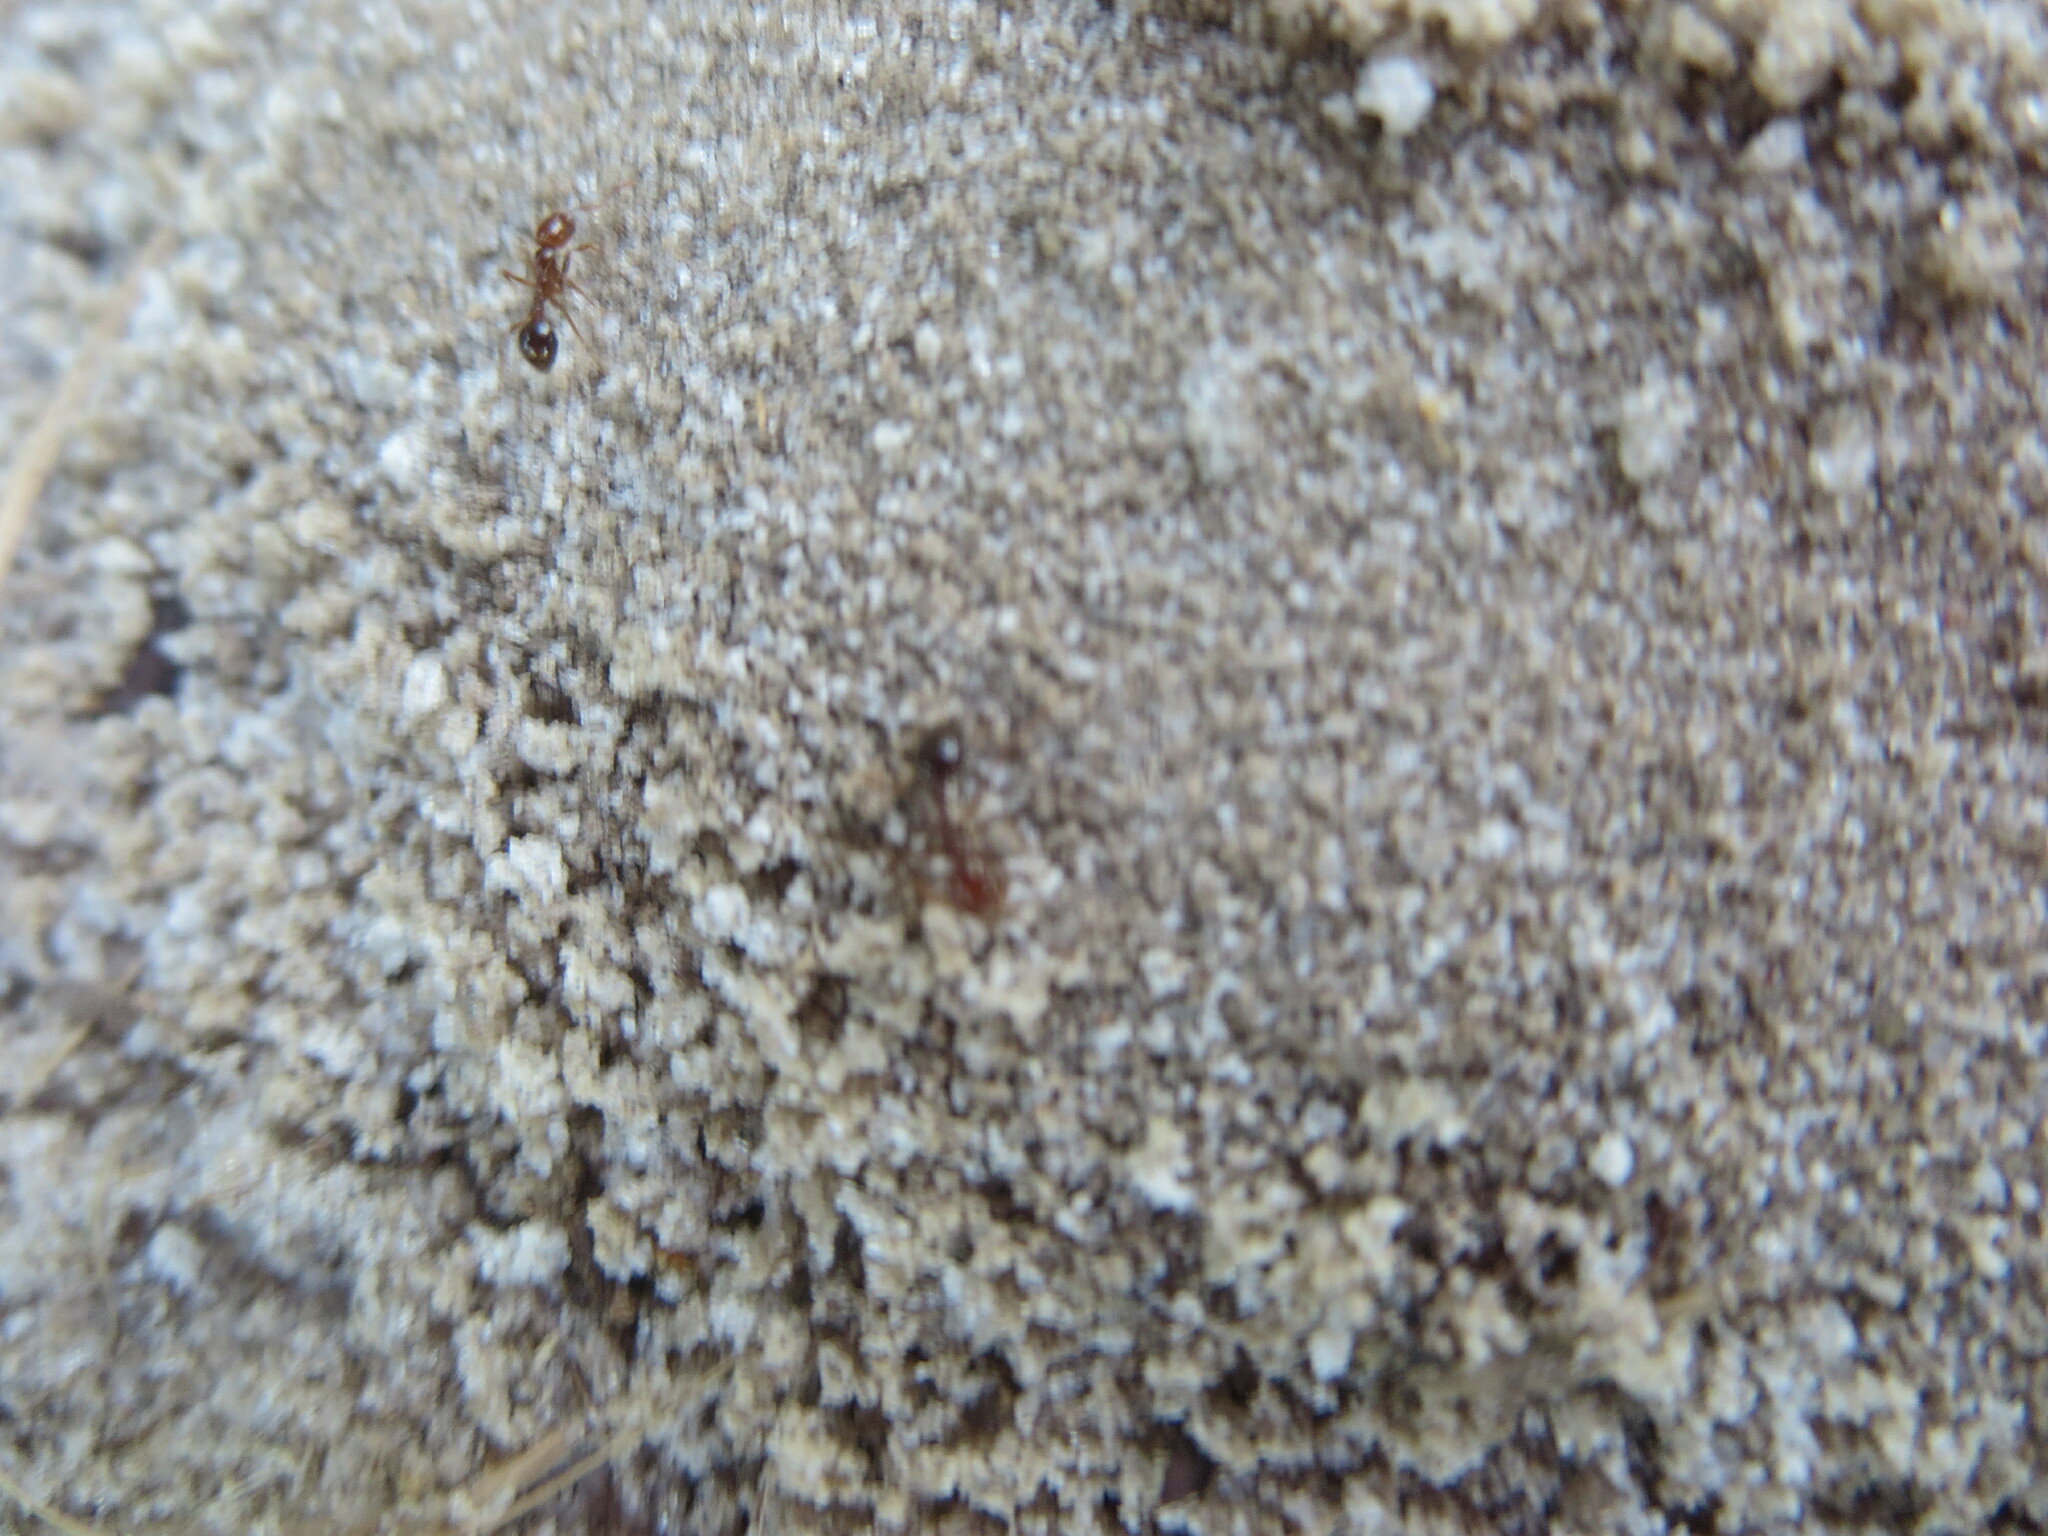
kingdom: Animalia
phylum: Arthropoda
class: Insecta
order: Hymenoptera
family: Formicidae
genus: Solenopsis
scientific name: Solenopsis invicta
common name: Red imported fire ant
